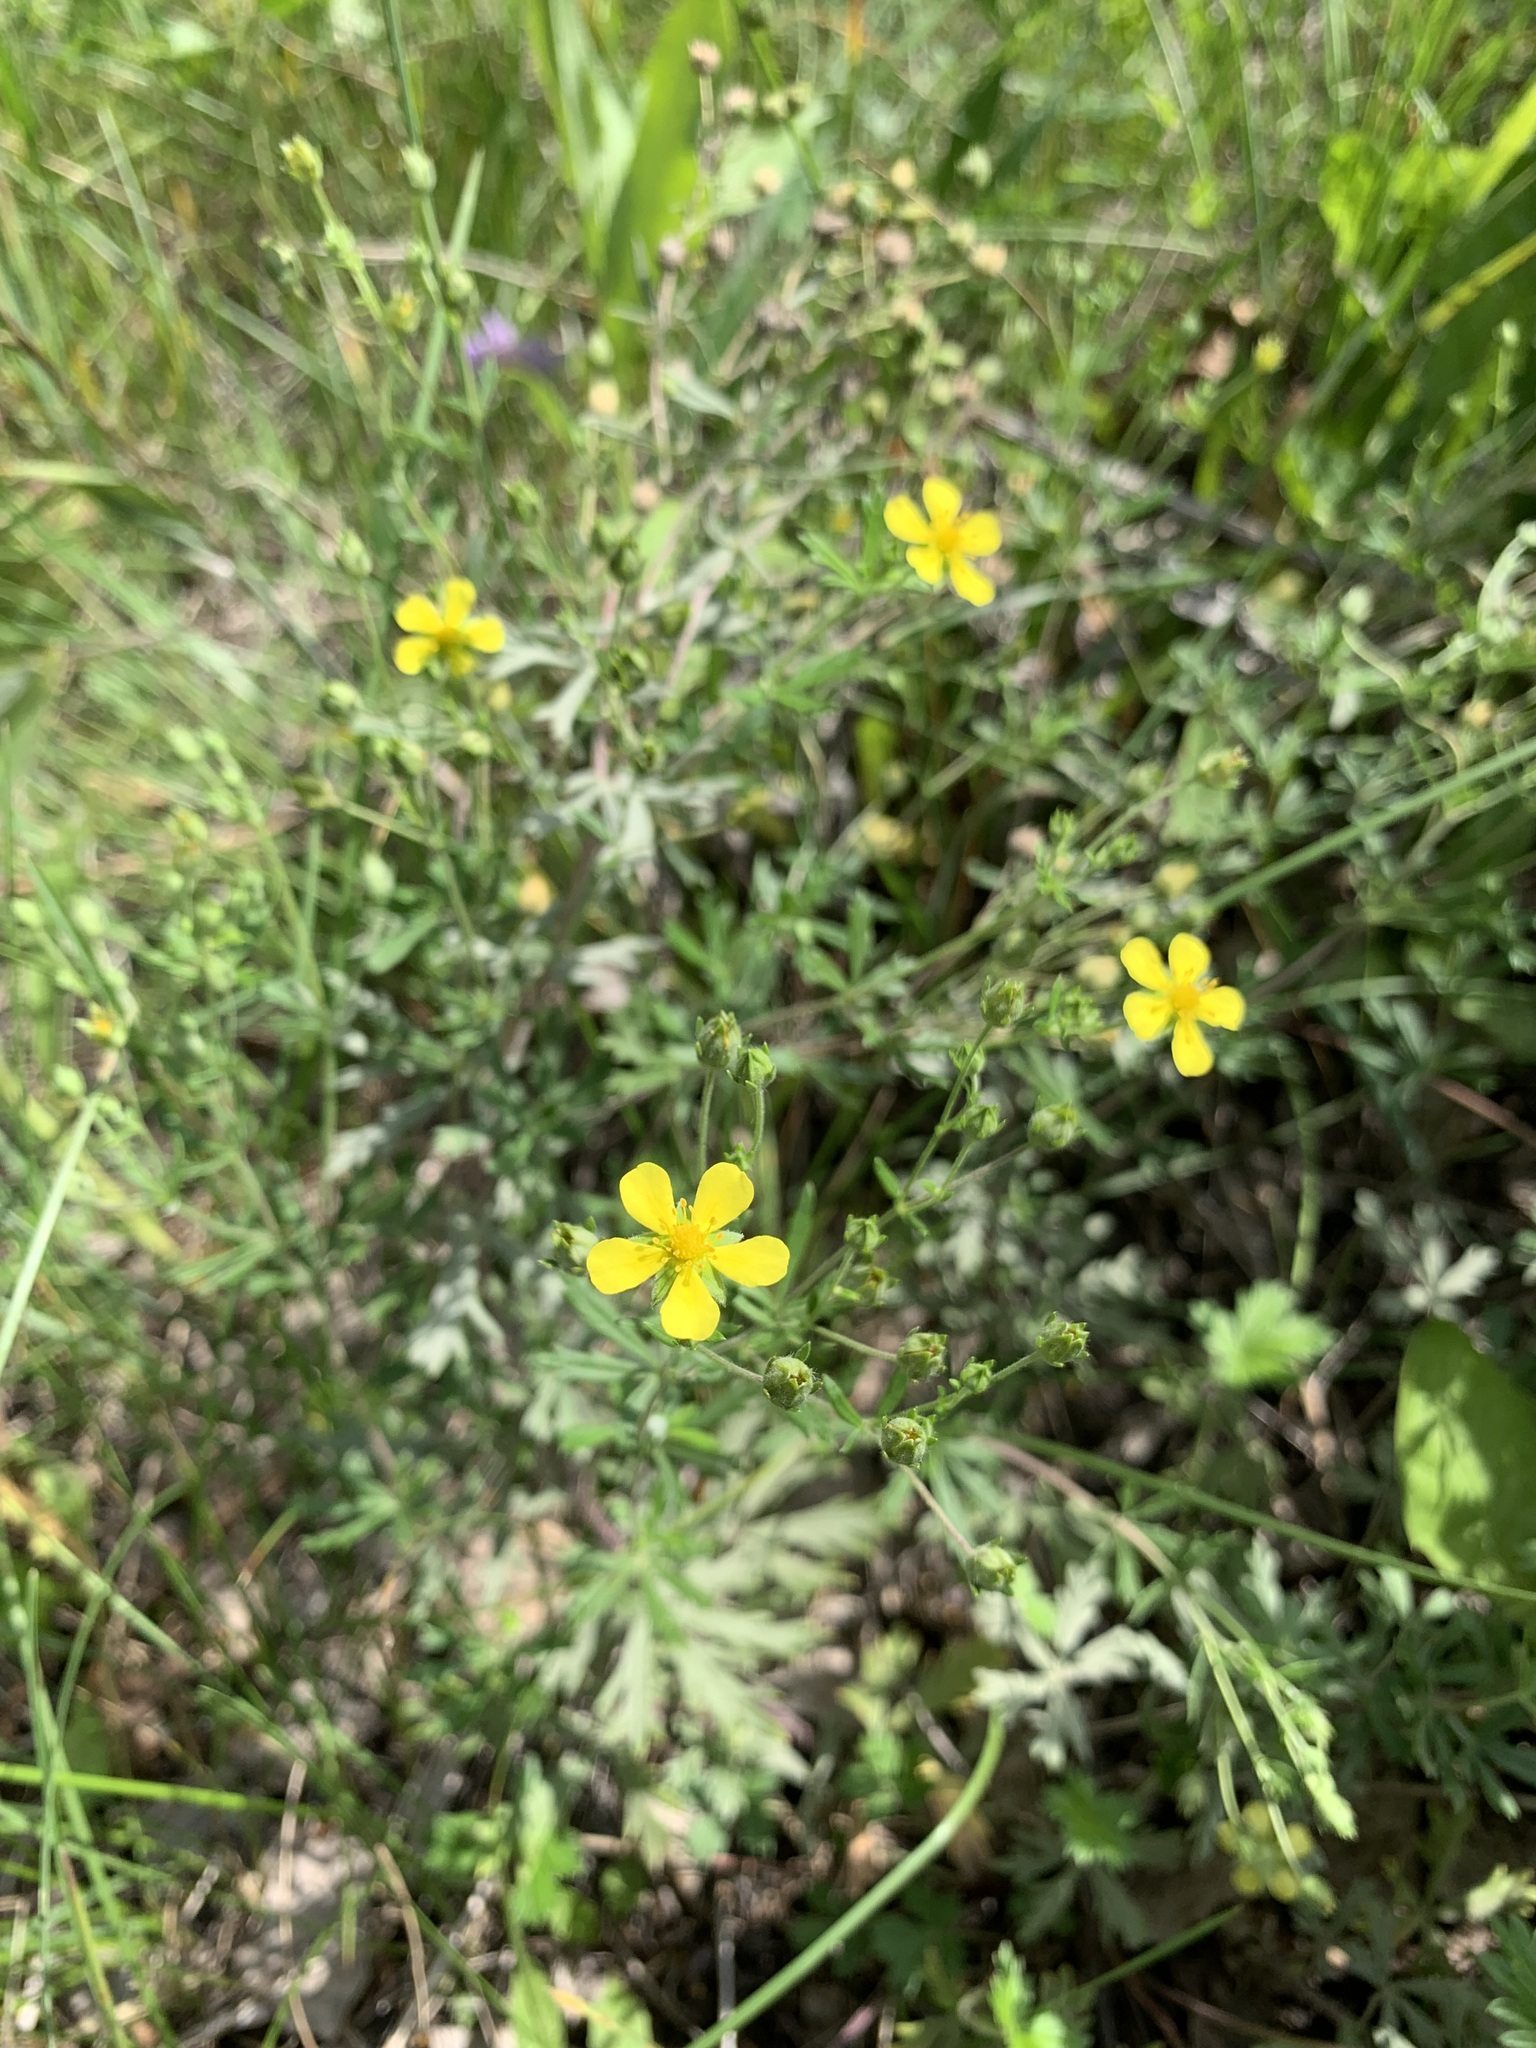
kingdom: Plantae
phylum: Tracheophyta
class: Magnoliopsida
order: Rosales
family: Rosaceae
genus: Potentilla
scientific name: Potentilla argentea
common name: Hoary cinquefoil
